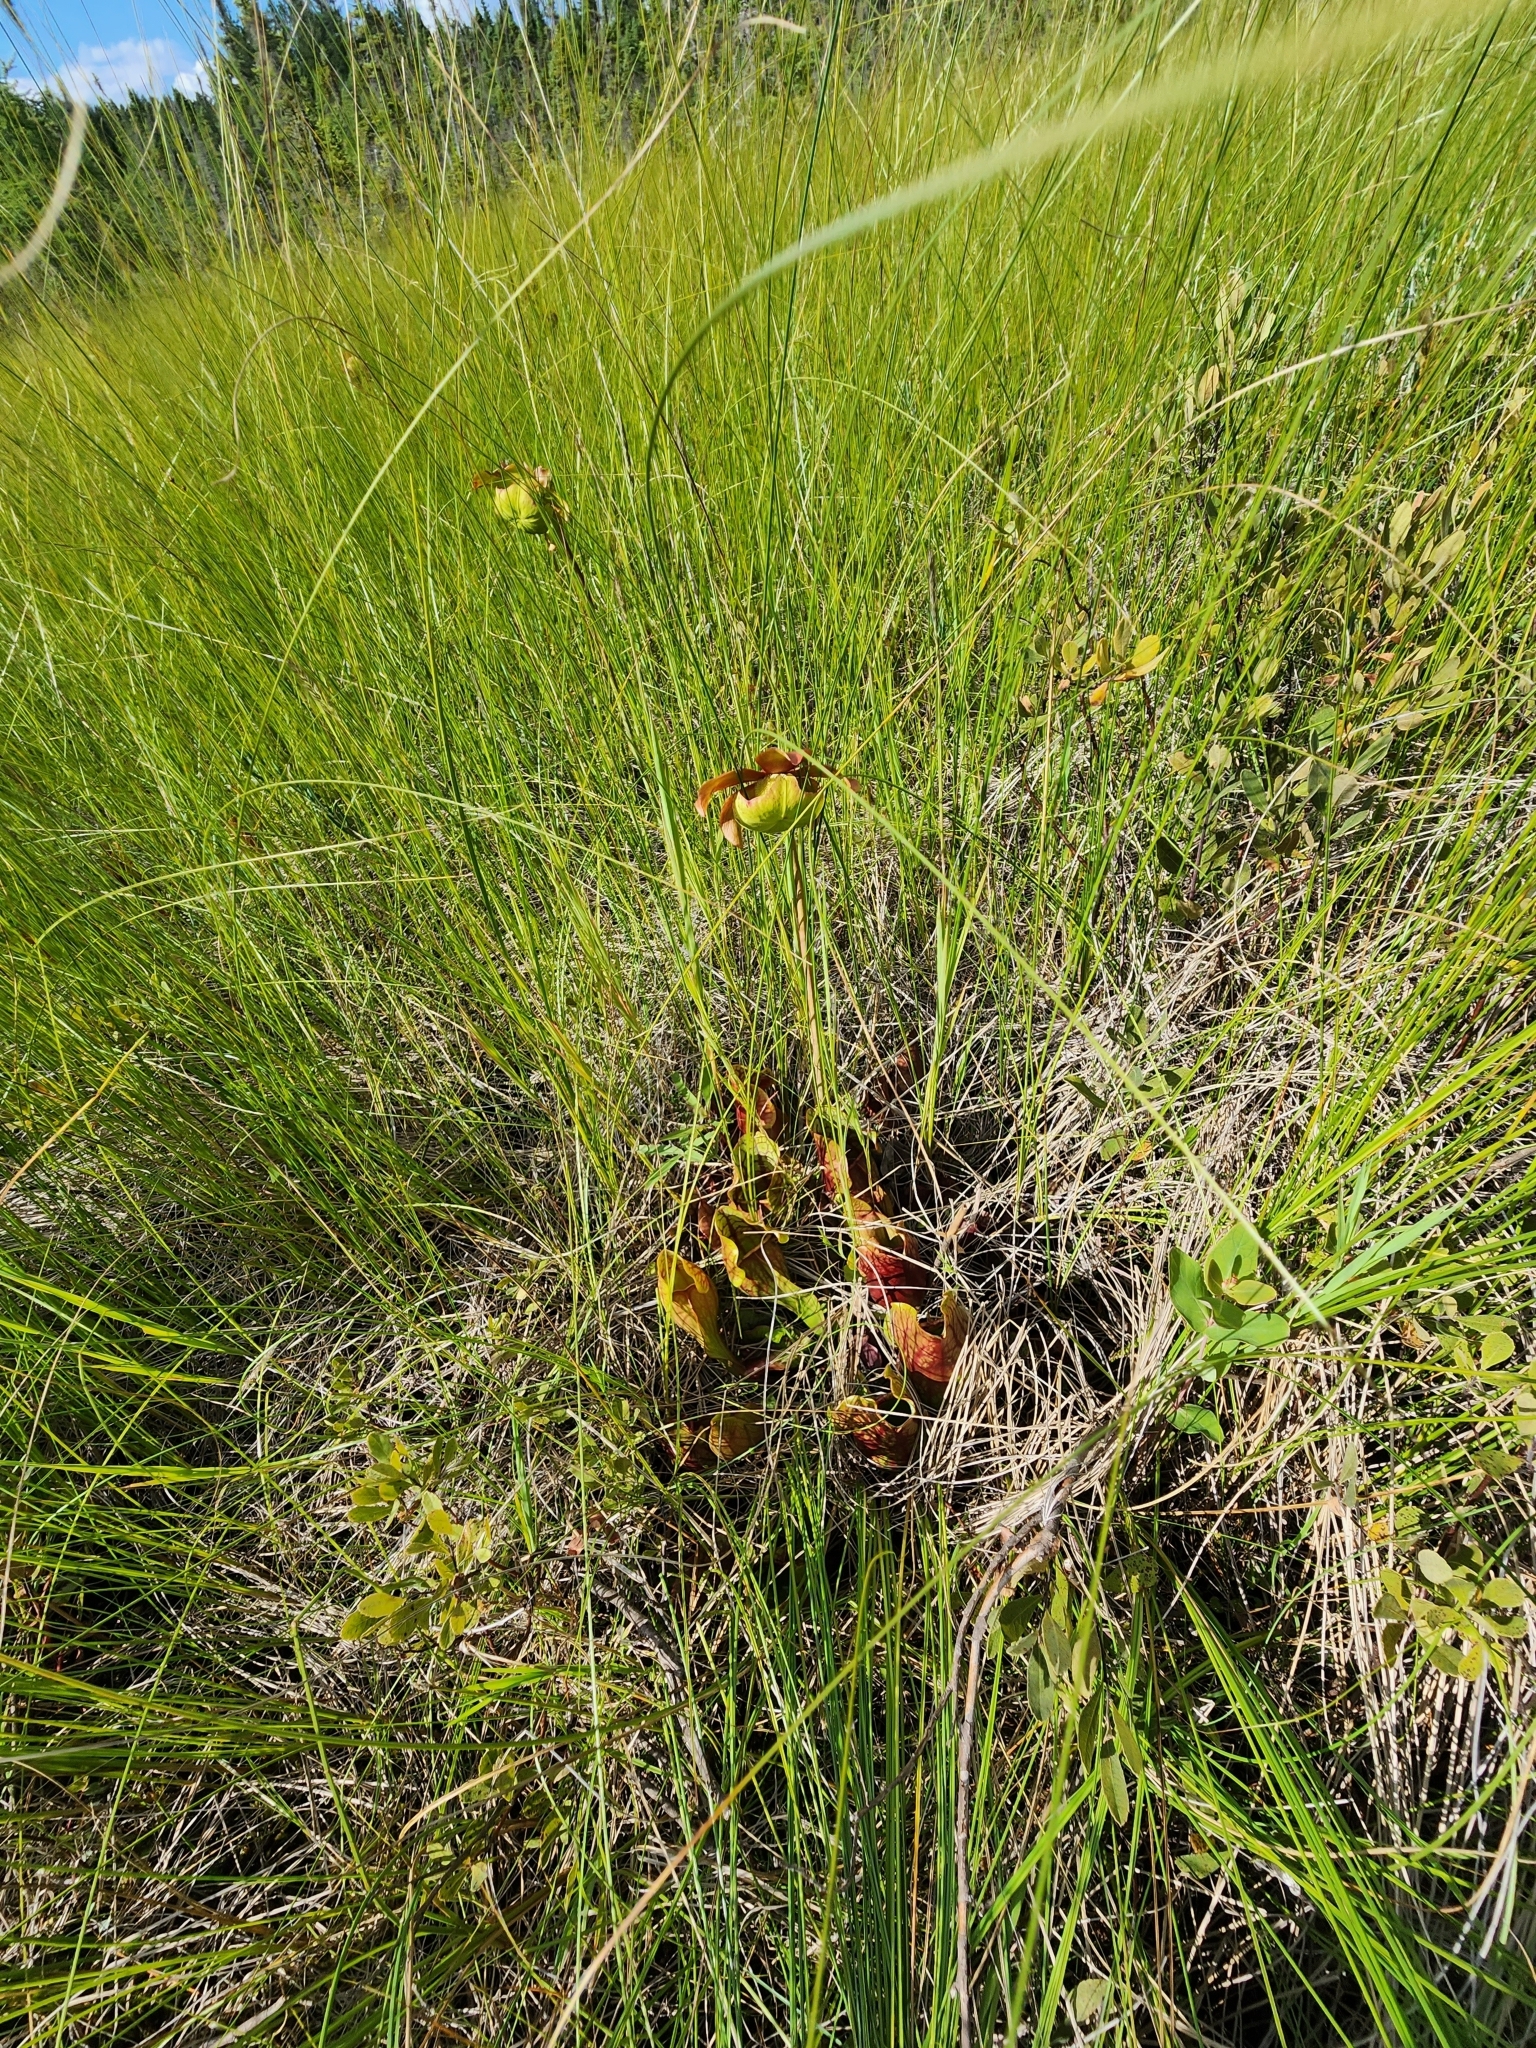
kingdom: Plantae
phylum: Tracheophyta
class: Magnoliopsida
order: Ericales
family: Sarraceniaceae
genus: Sarracenia
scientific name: Sarracenia purpurea
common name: Pitcherplant
